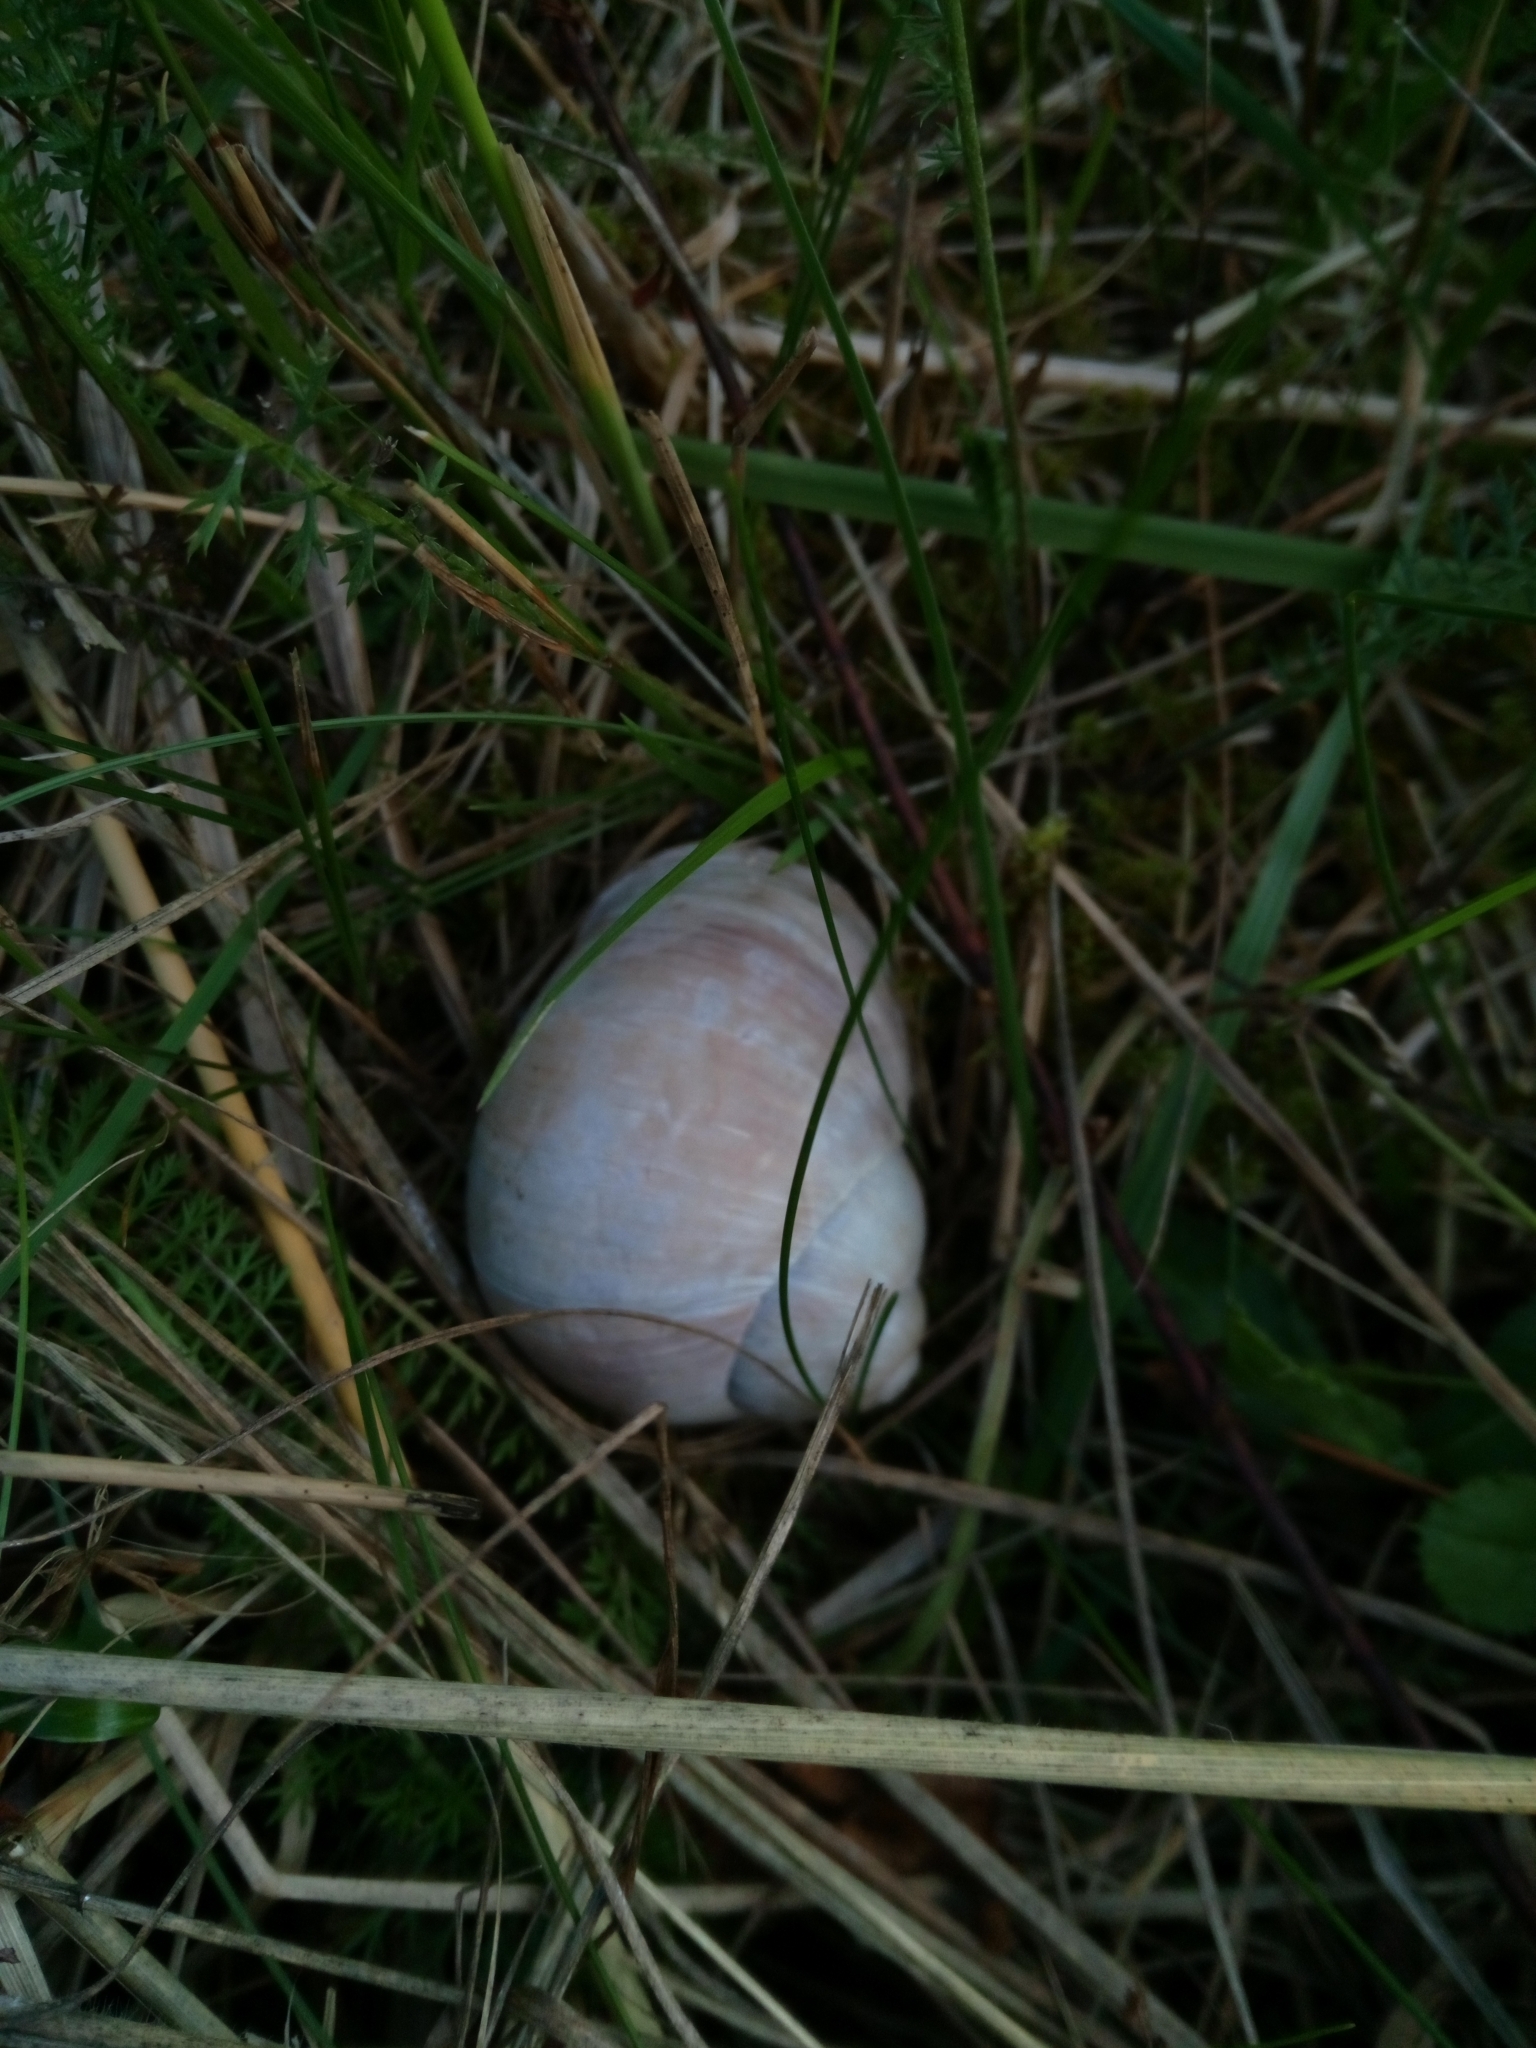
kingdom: Animalia
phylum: Mollusca
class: Gastropoda
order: Stylommatophora
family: Helicidae
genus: Helix
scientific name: Helix pomatia
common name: Roman snail
